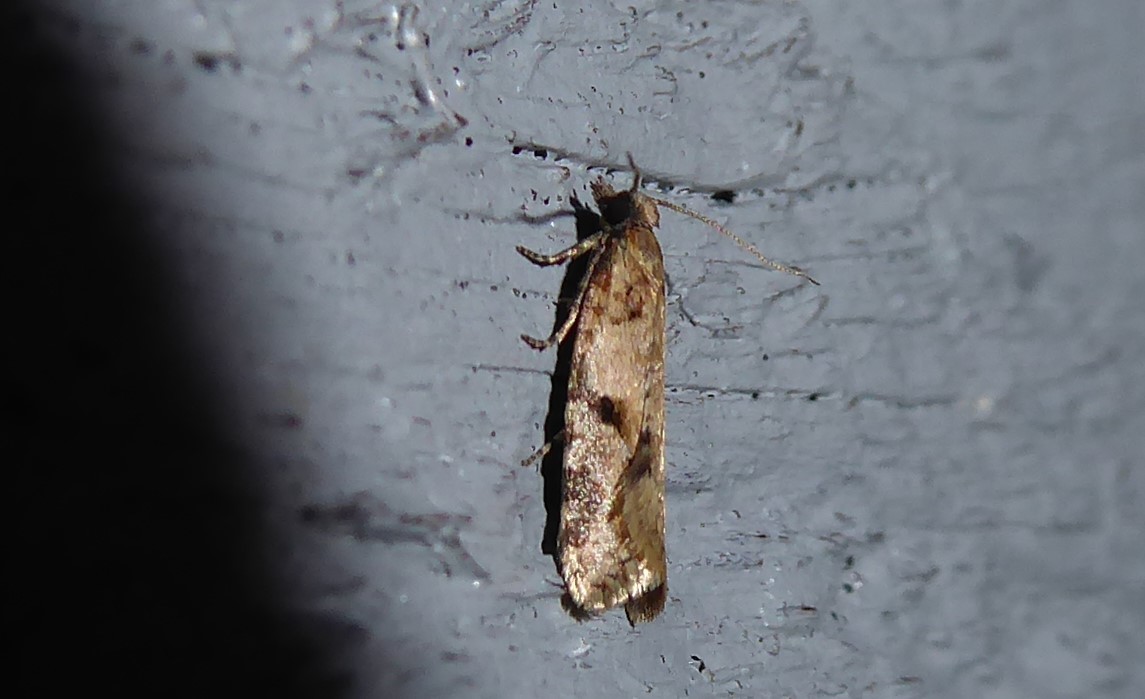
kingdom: Animalia
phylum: Arthropoda
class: Insecta
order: Lepidoptera
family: Tortricidae
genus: Capua
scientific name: Capua semiferana
